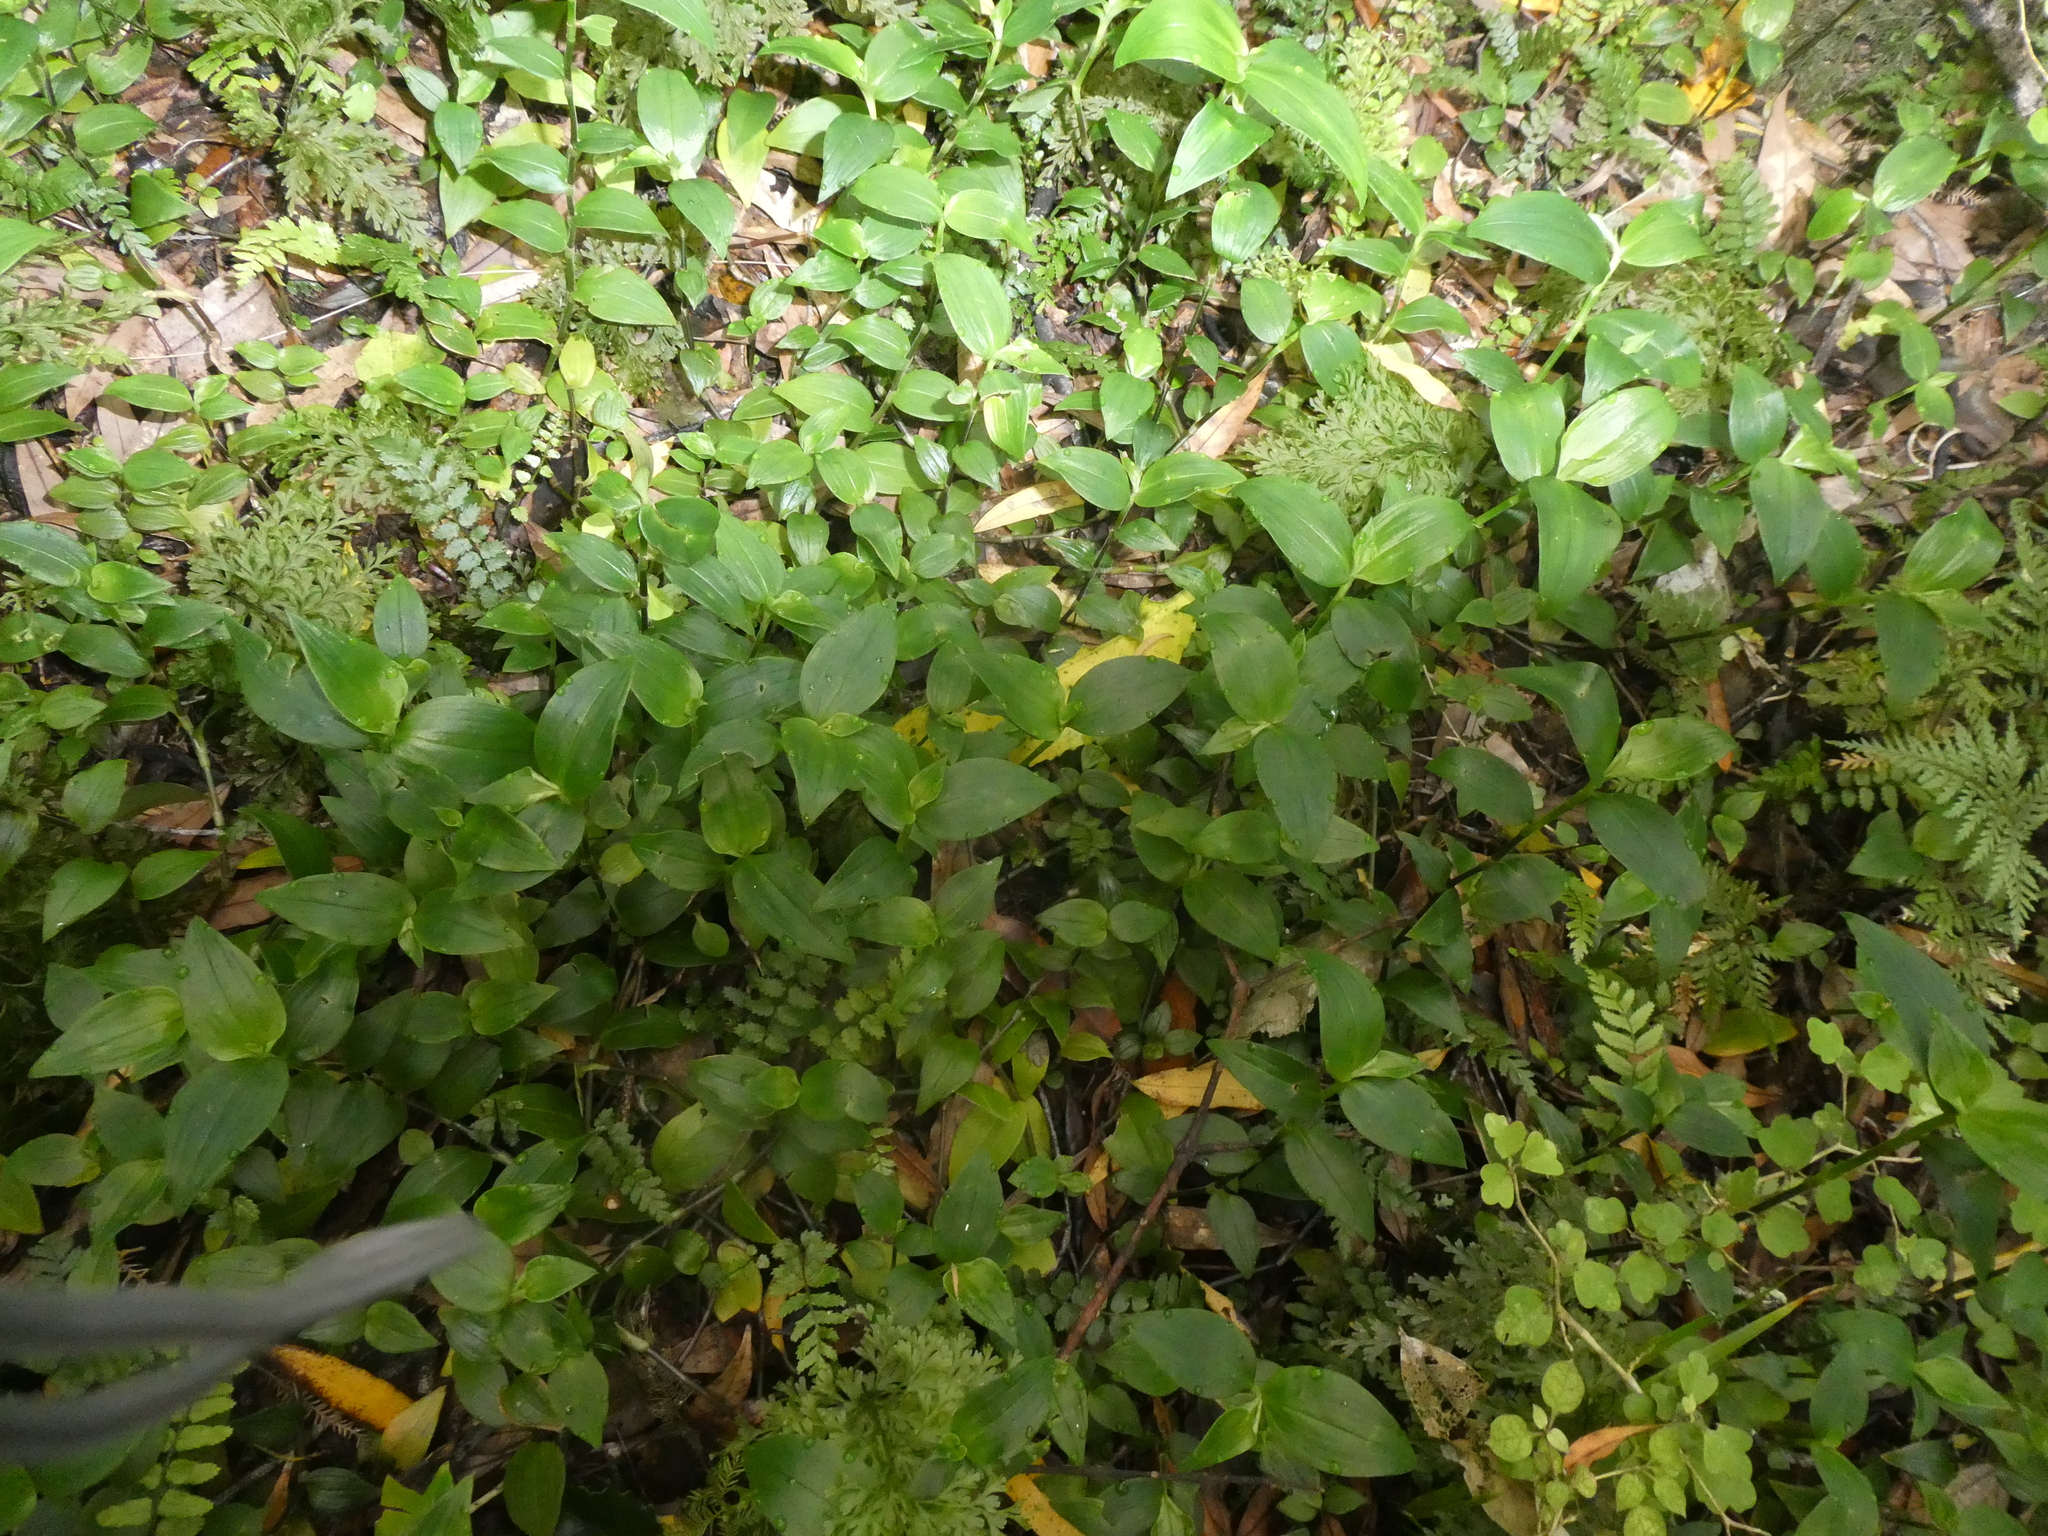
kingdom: Plantae
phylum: Tracheophyta
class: Liliopsida
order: Commelinales
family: Commelinaceae
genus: Tradescantia
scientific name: Tradescantia fluminensis
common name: Wandering-jew
